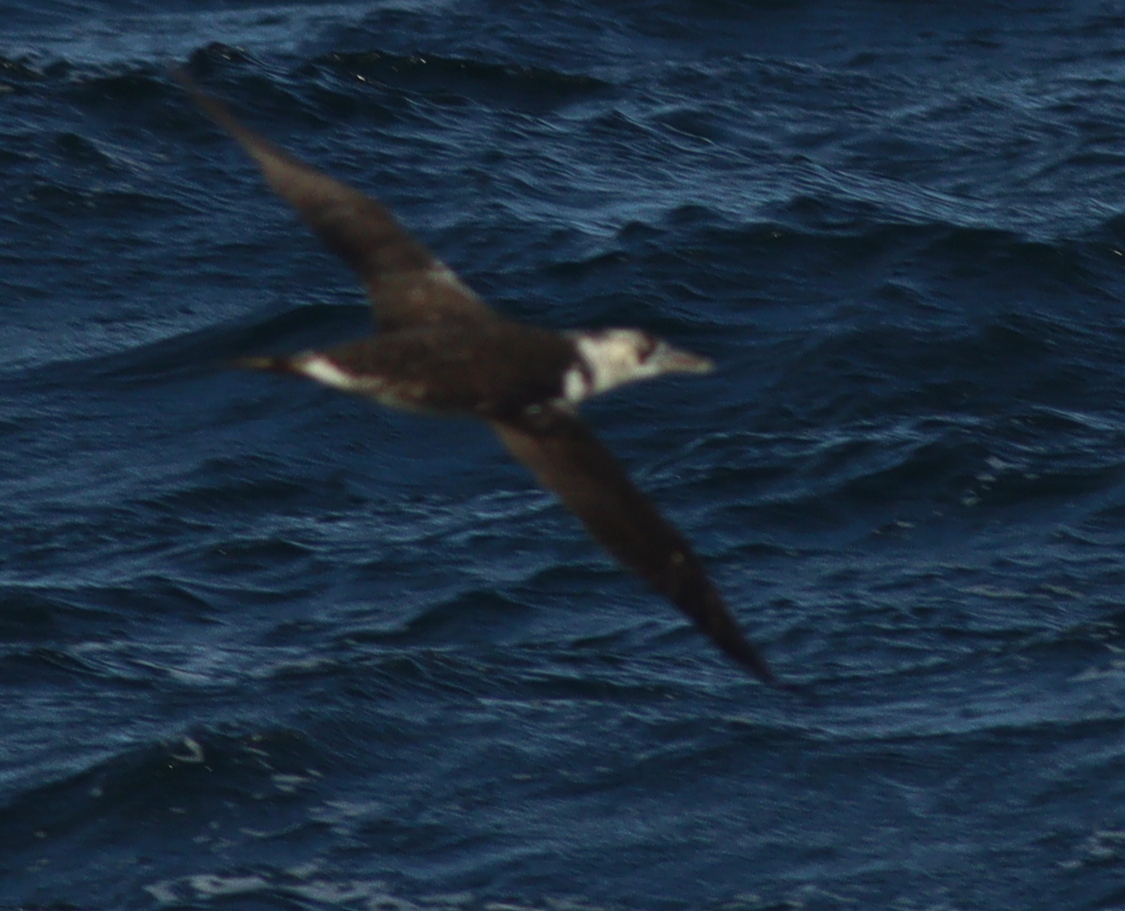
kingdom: Animalia
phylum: Chordata
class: Aves
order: Suliformes
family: Sulidae
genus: Morus
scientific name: Morus bassanus
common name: Northern gannet
